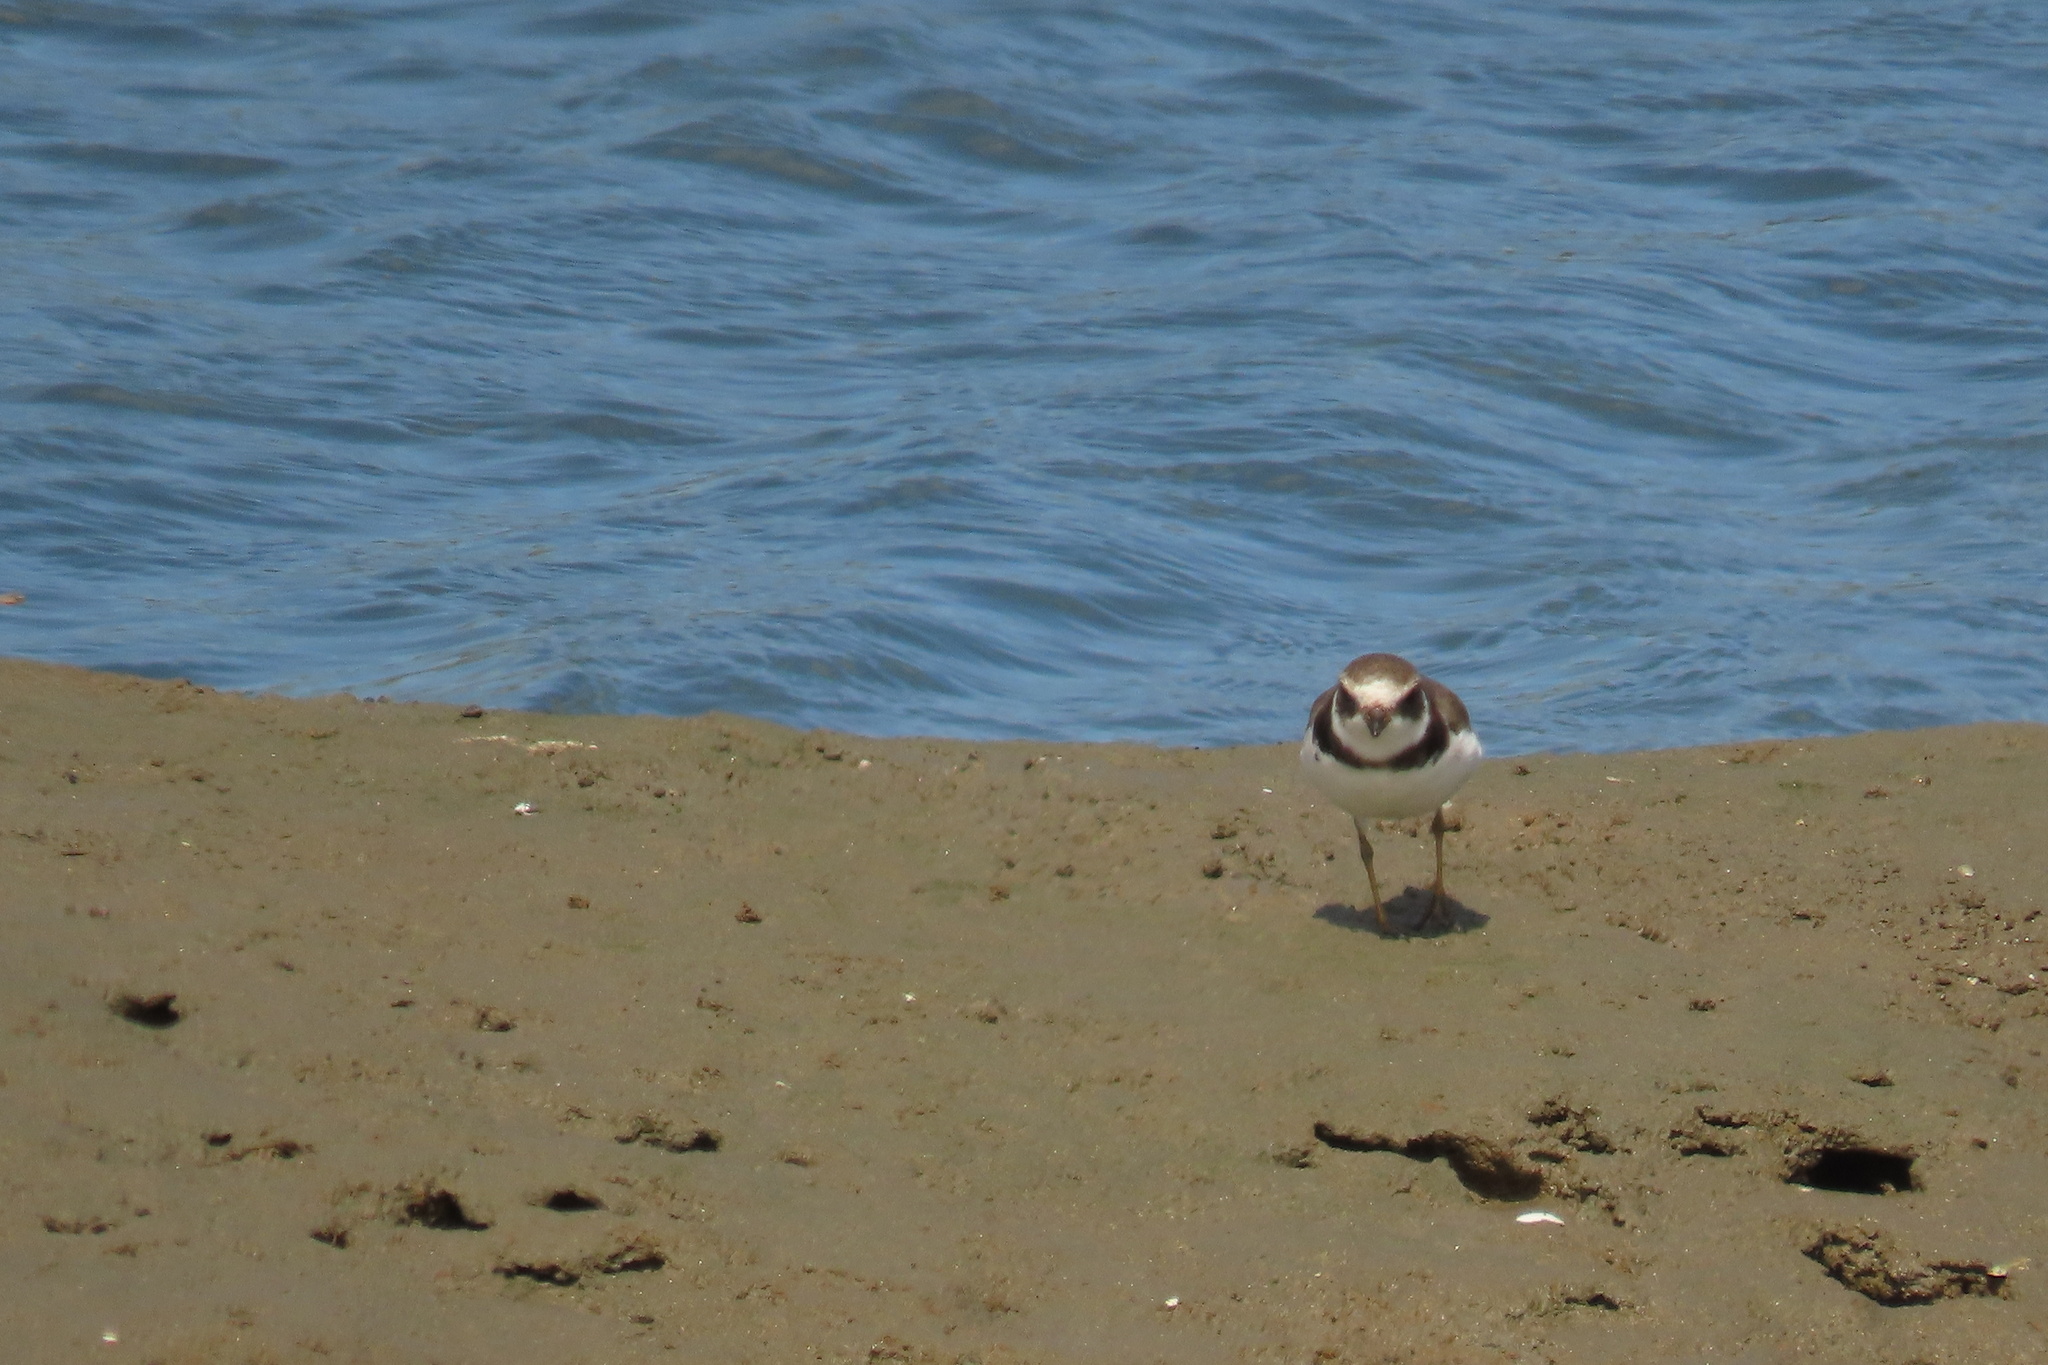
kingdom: Animalia
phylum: Chordata
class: Aves
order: Charadriiformes
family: Charadriidae
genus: Charadrius
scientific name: Charadrius semipalmatus
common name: Semipalmated plover
